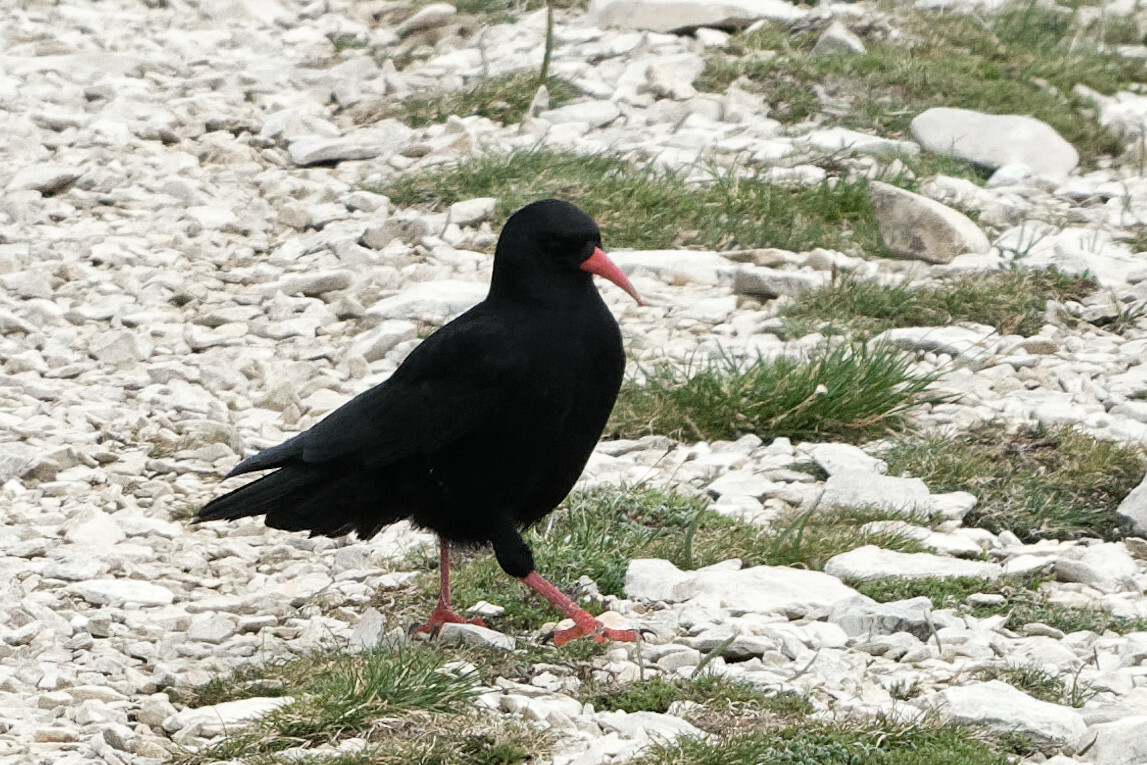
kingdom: Animalia
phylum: Chordata
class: Aves
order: Passeriformes
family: Corvidae
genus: Pyrrhocorax
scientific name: Pyrrhocorax pyrrhocorax
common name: Red-billed chough
